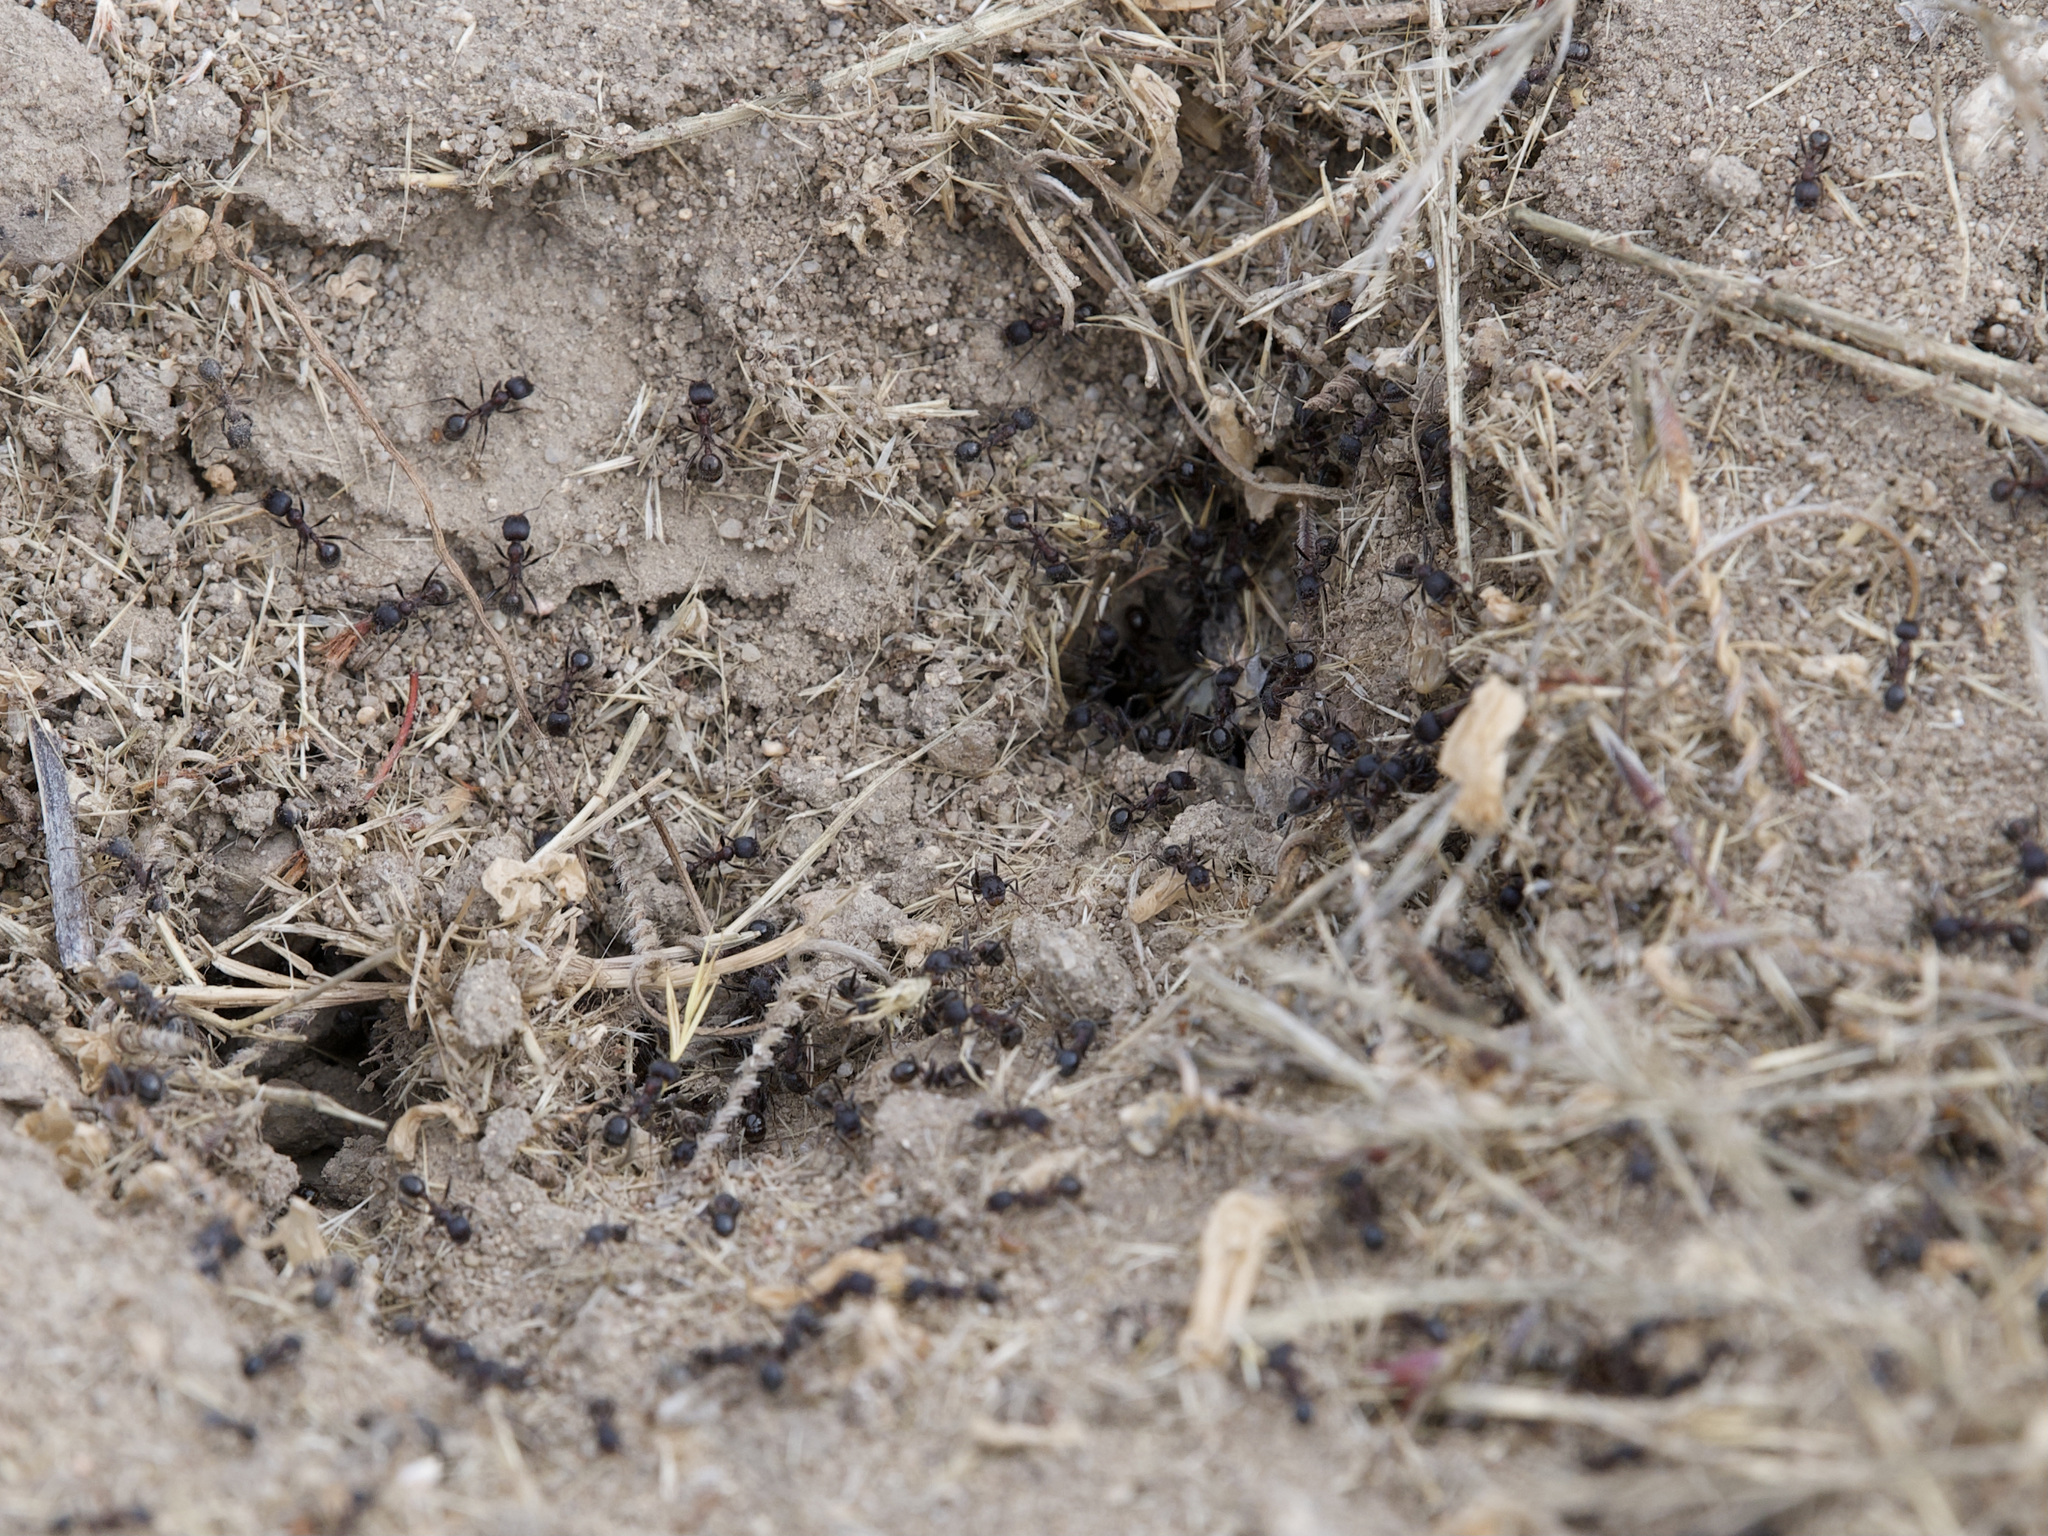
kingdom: Animalia
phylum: Arthropoda
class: Insecta
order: Hymenoptera
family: Formicidae
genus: Veromessor
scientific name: Veromessor andrei
